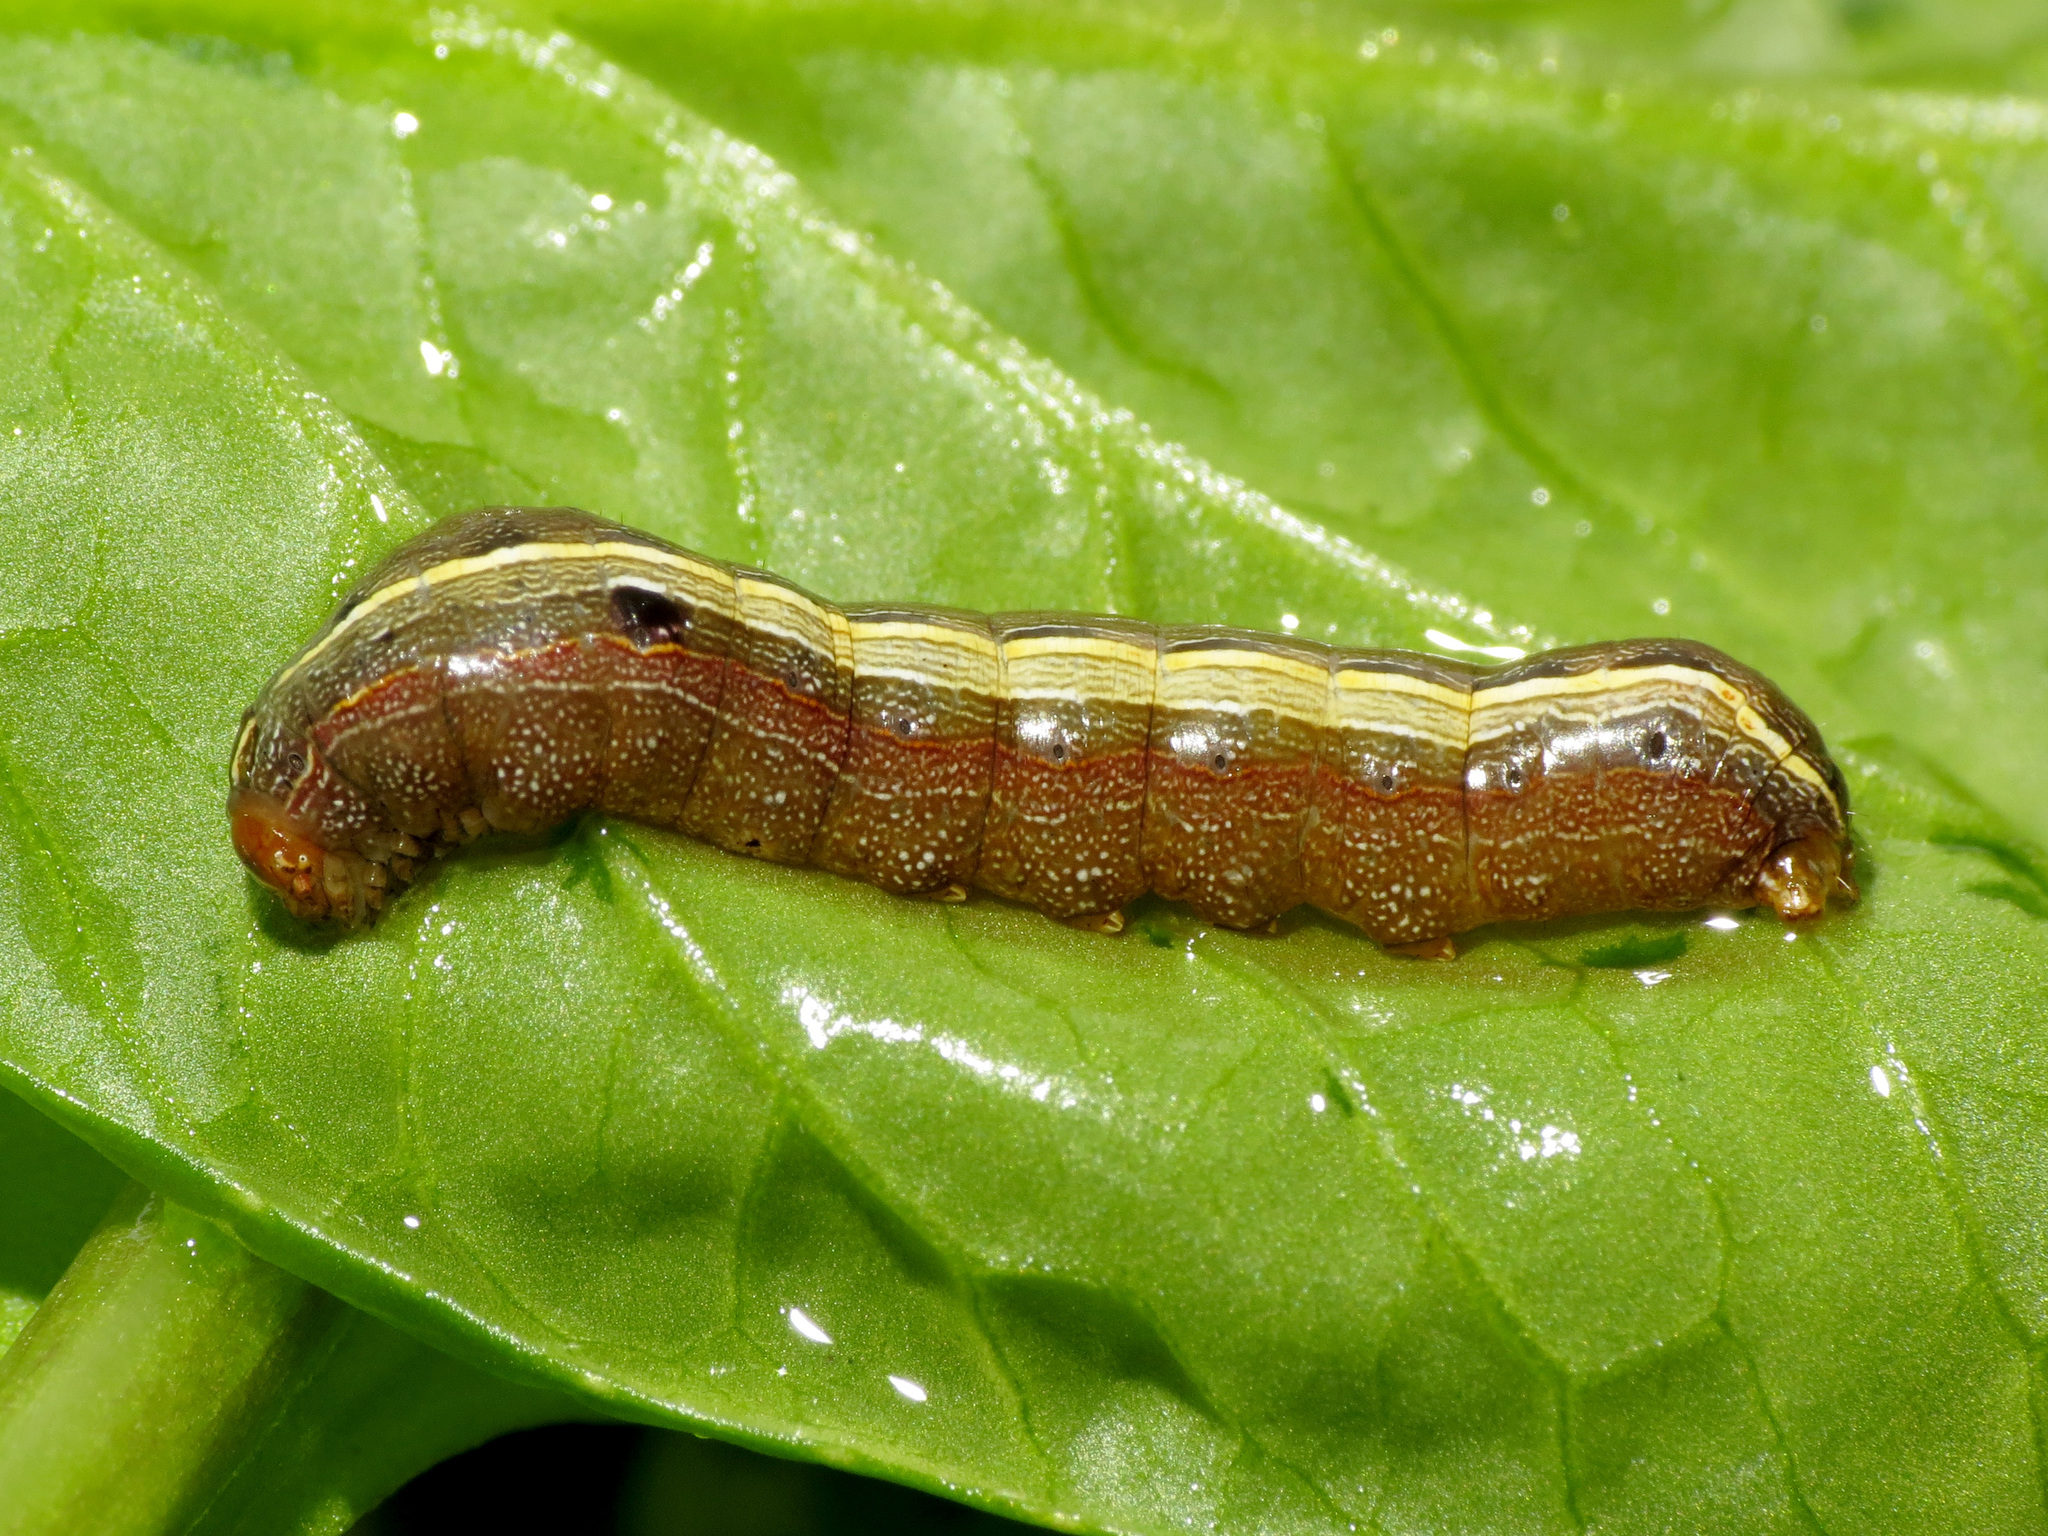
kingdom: Animalia
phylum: Arthropoda
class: Insecta
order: Lepidoptera
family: Noctuidae
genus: Spodoptera
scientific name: Spodoptera ornithogalli
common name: Yellow-striped armyworm
